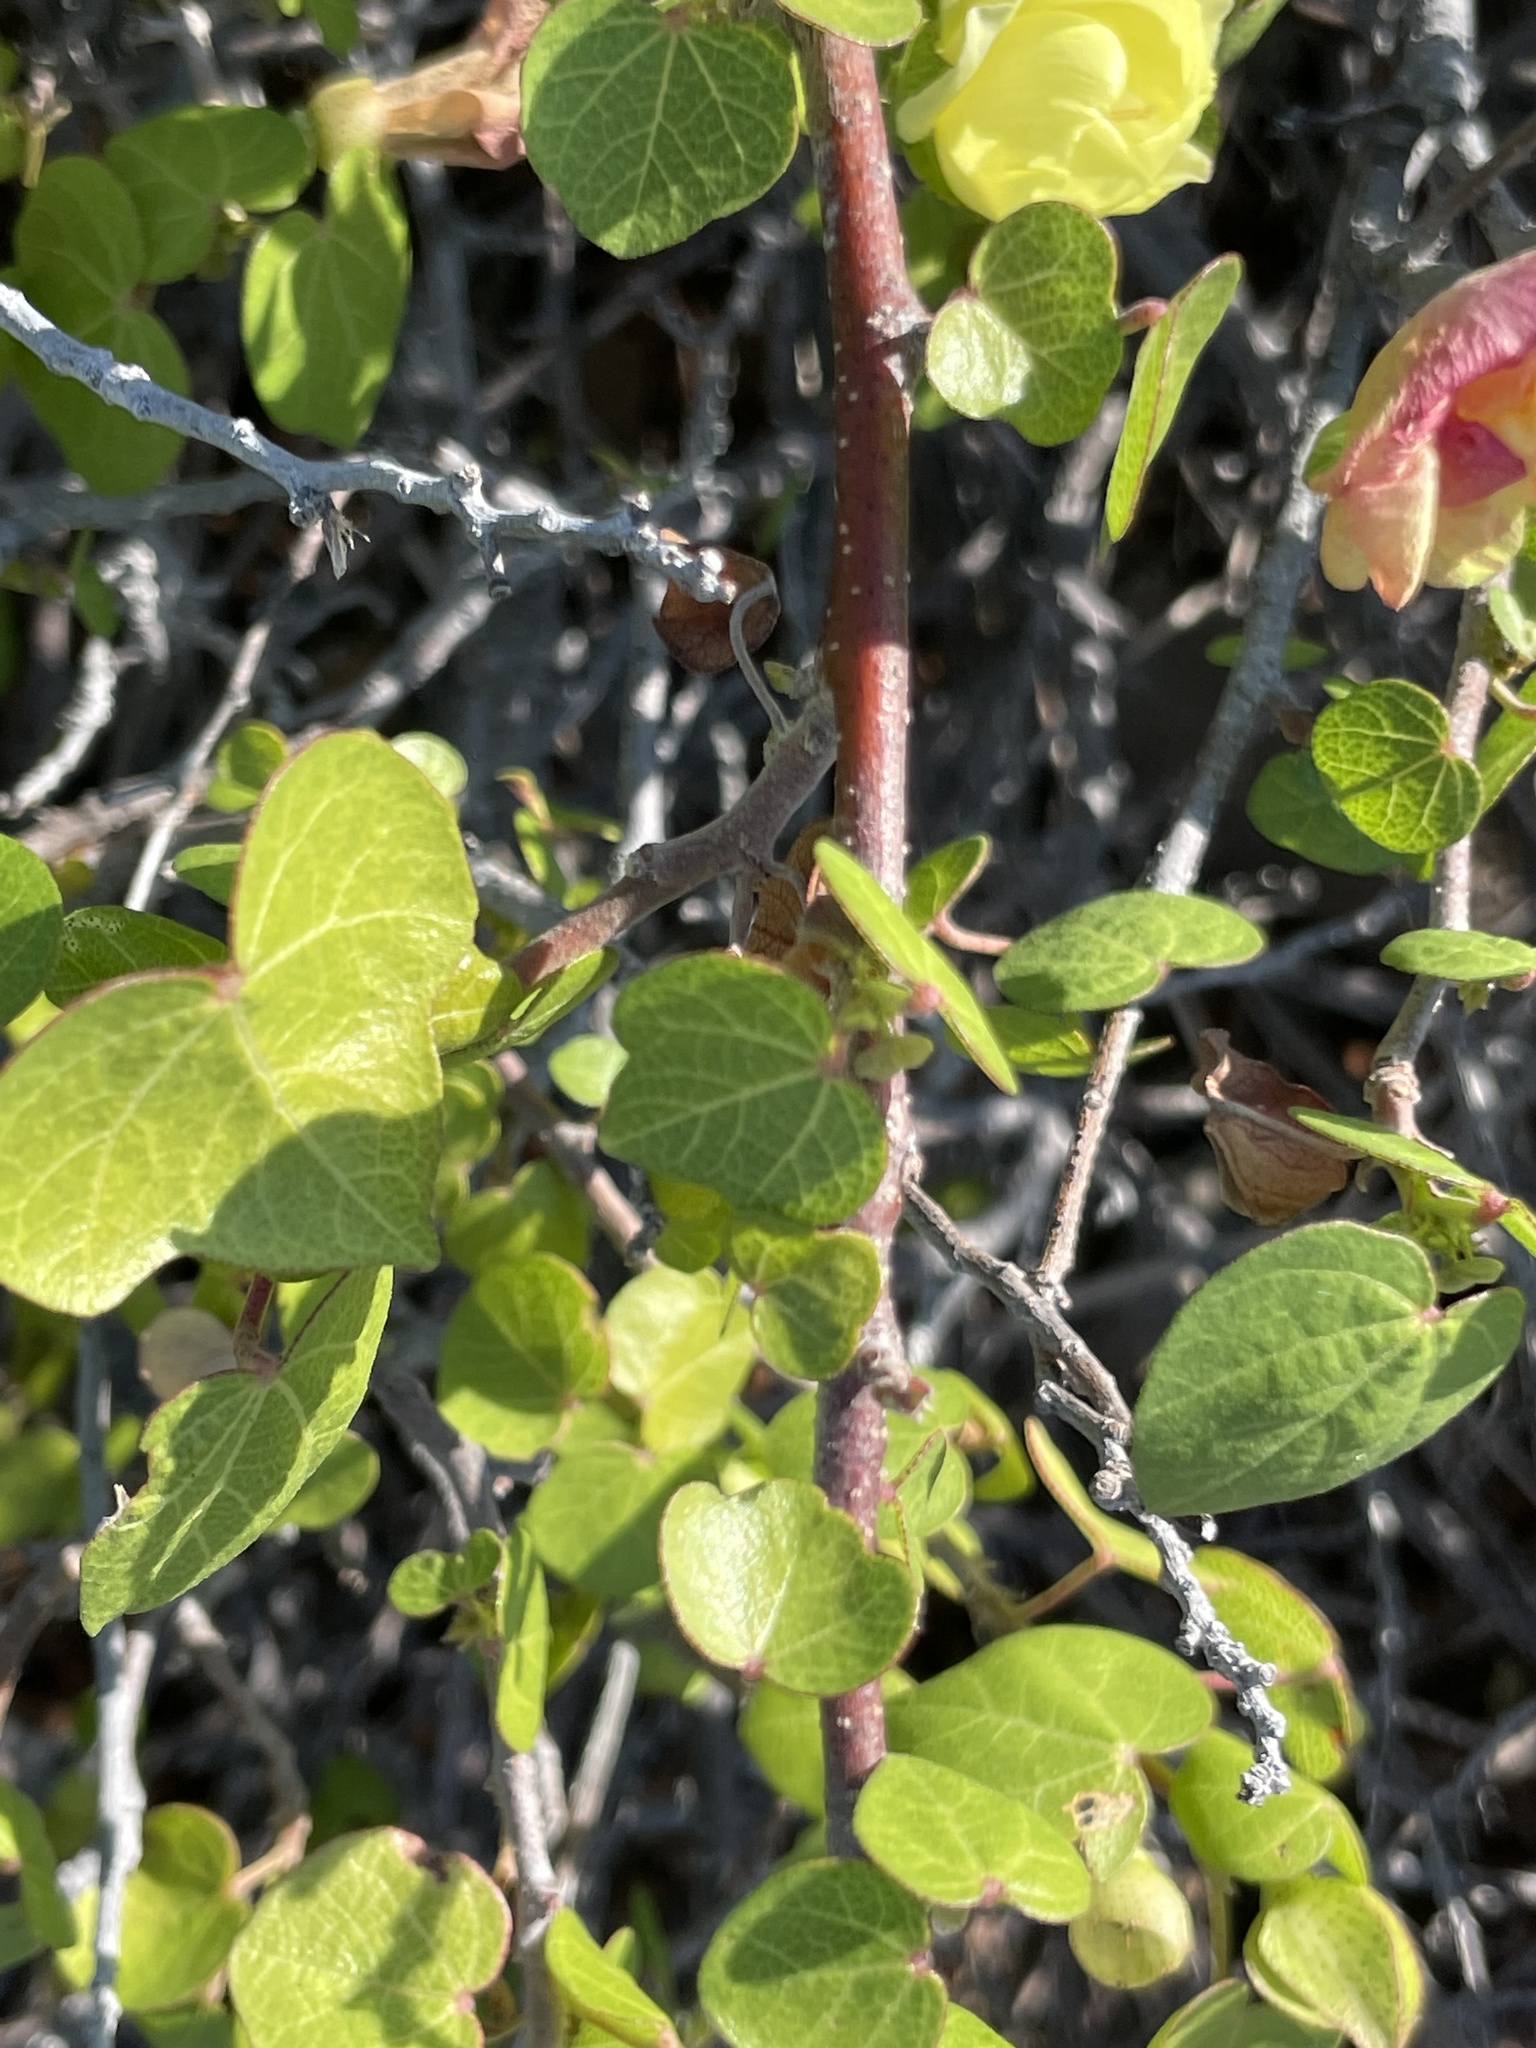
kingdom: Plantae
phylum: Tracheophyta
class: Magnoliopsida
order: Malvales
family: Malvaceae
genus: Gossypium
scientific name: Gossypium harknessii
